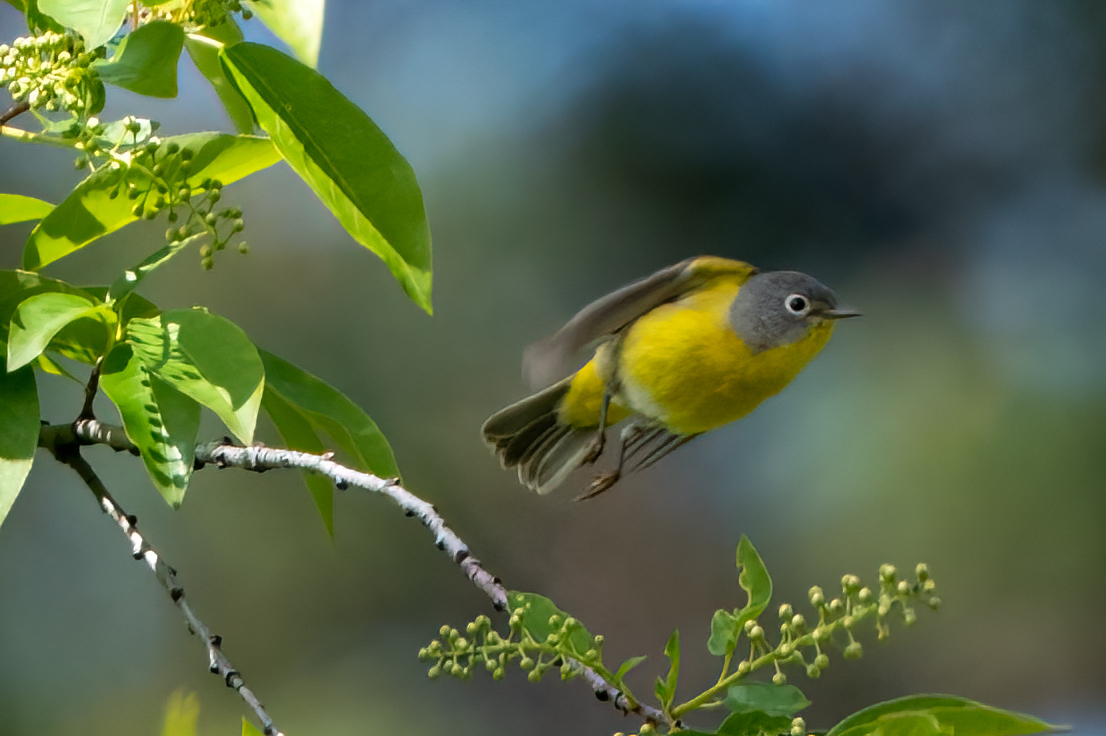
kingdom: Animalia
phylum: Chordata
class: Aves
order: Passeriformes
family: Parulidae
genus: Leiothlypis
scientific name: Leiothlypis ruficapilla
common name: Nashville warbler
